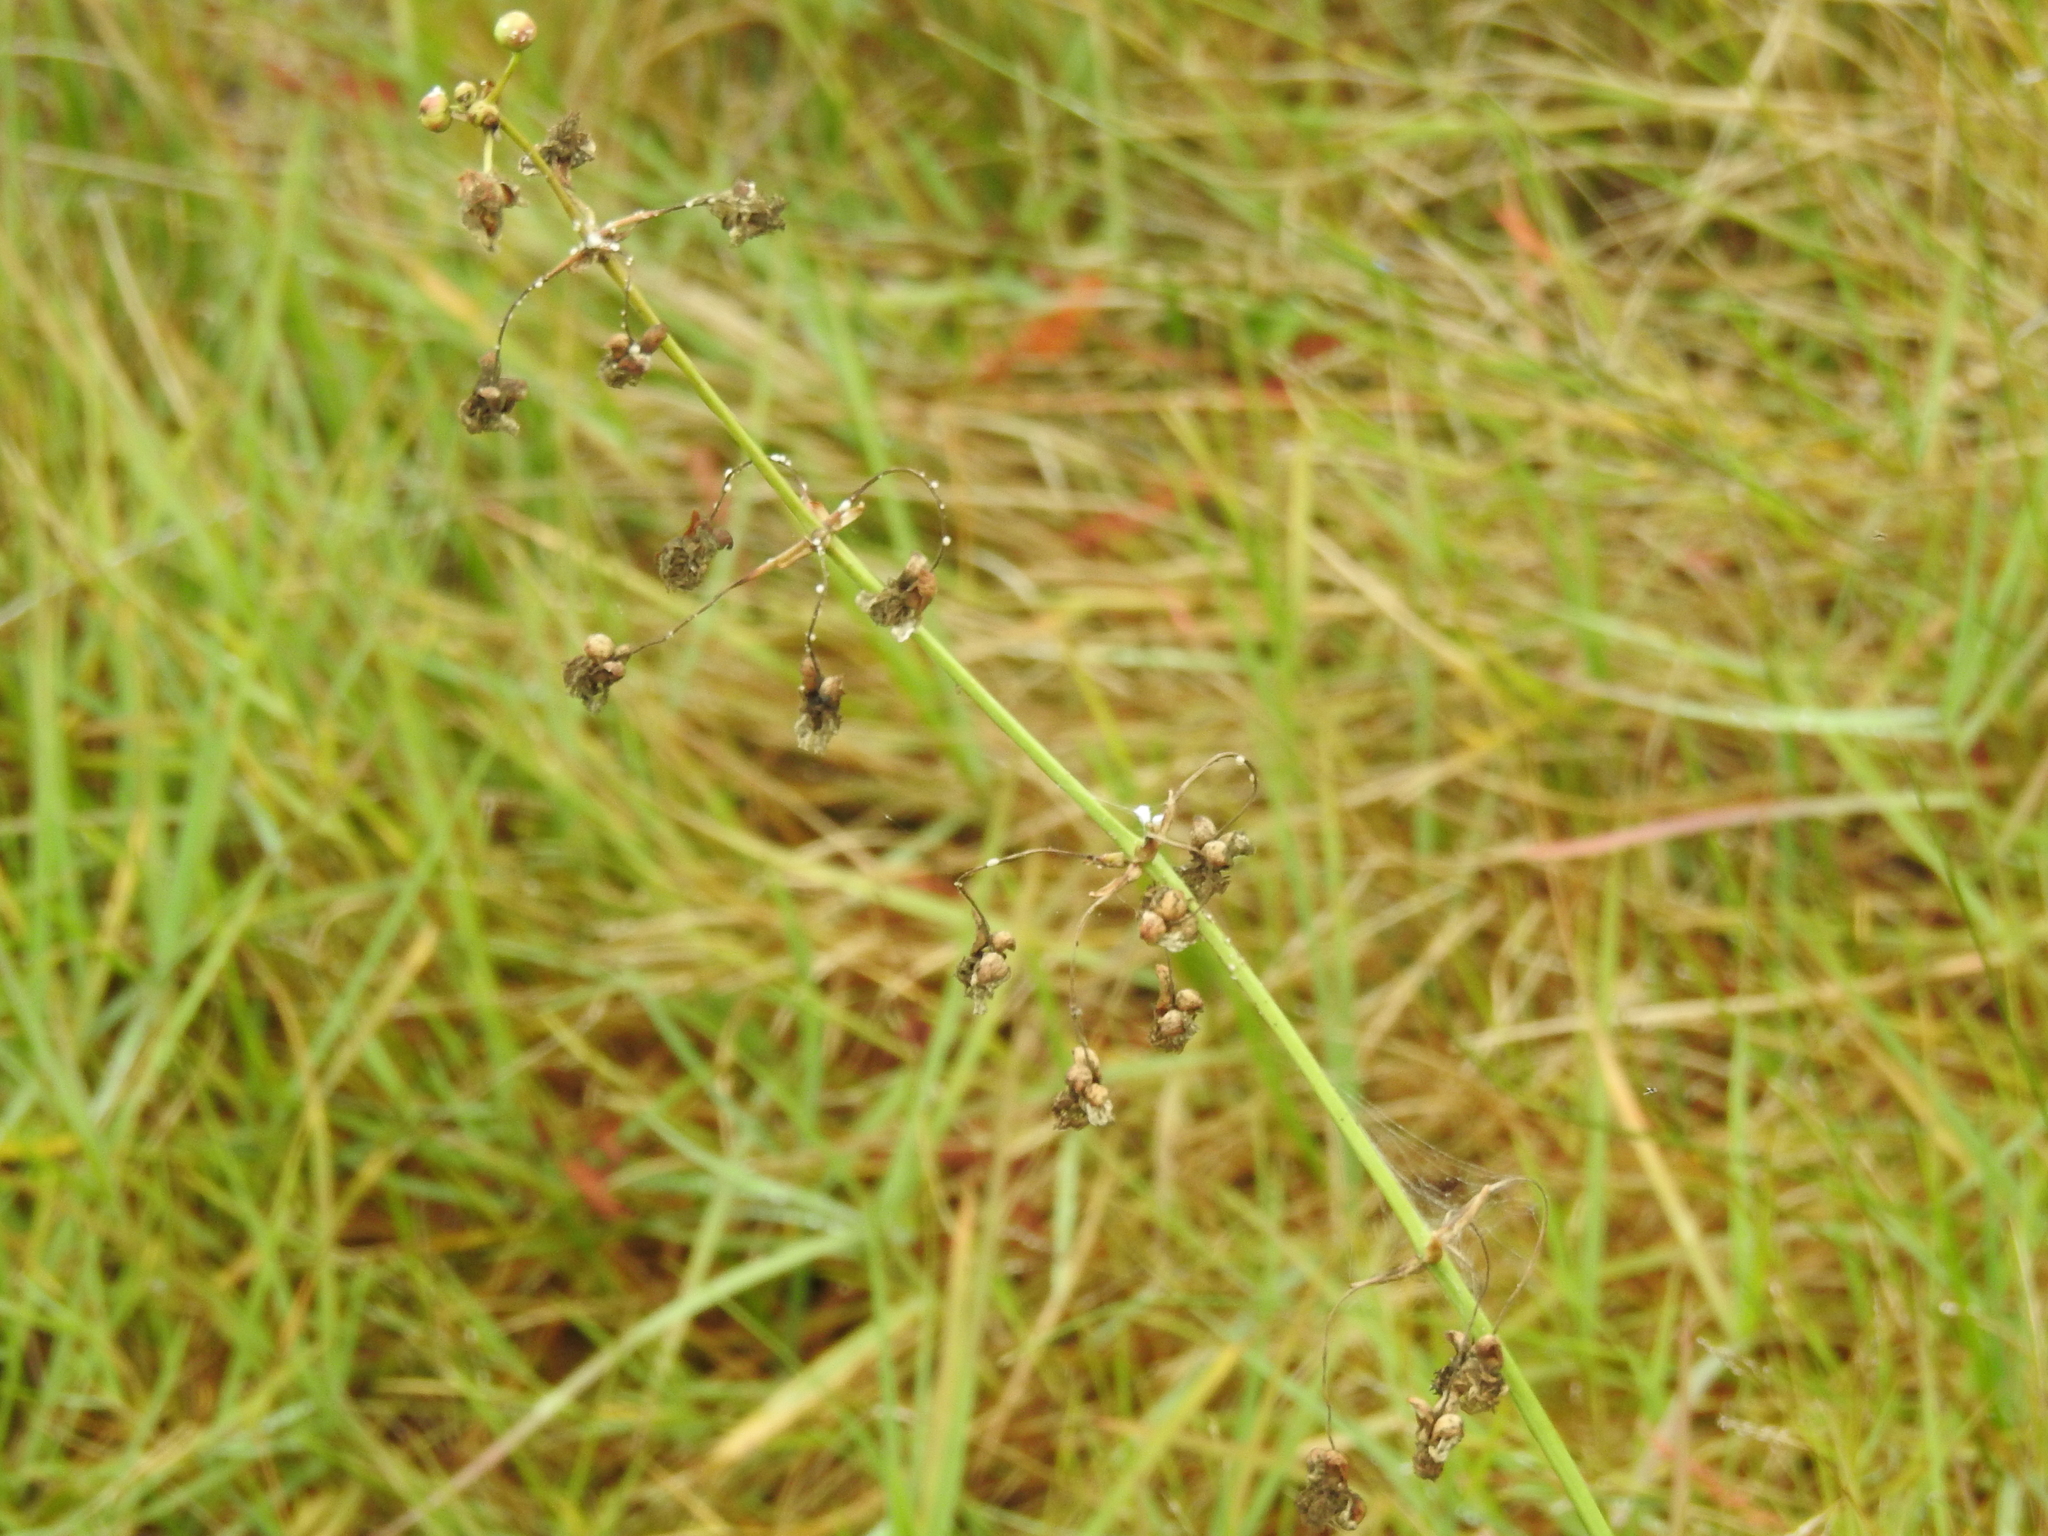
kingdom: Plantae
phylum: Tracheophyta
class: Liliopsida
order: Alismatales
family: Alismataceae
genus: Sagittaria
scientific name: Sagittaria lancifolia
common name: Lance-leaf arrowhead
